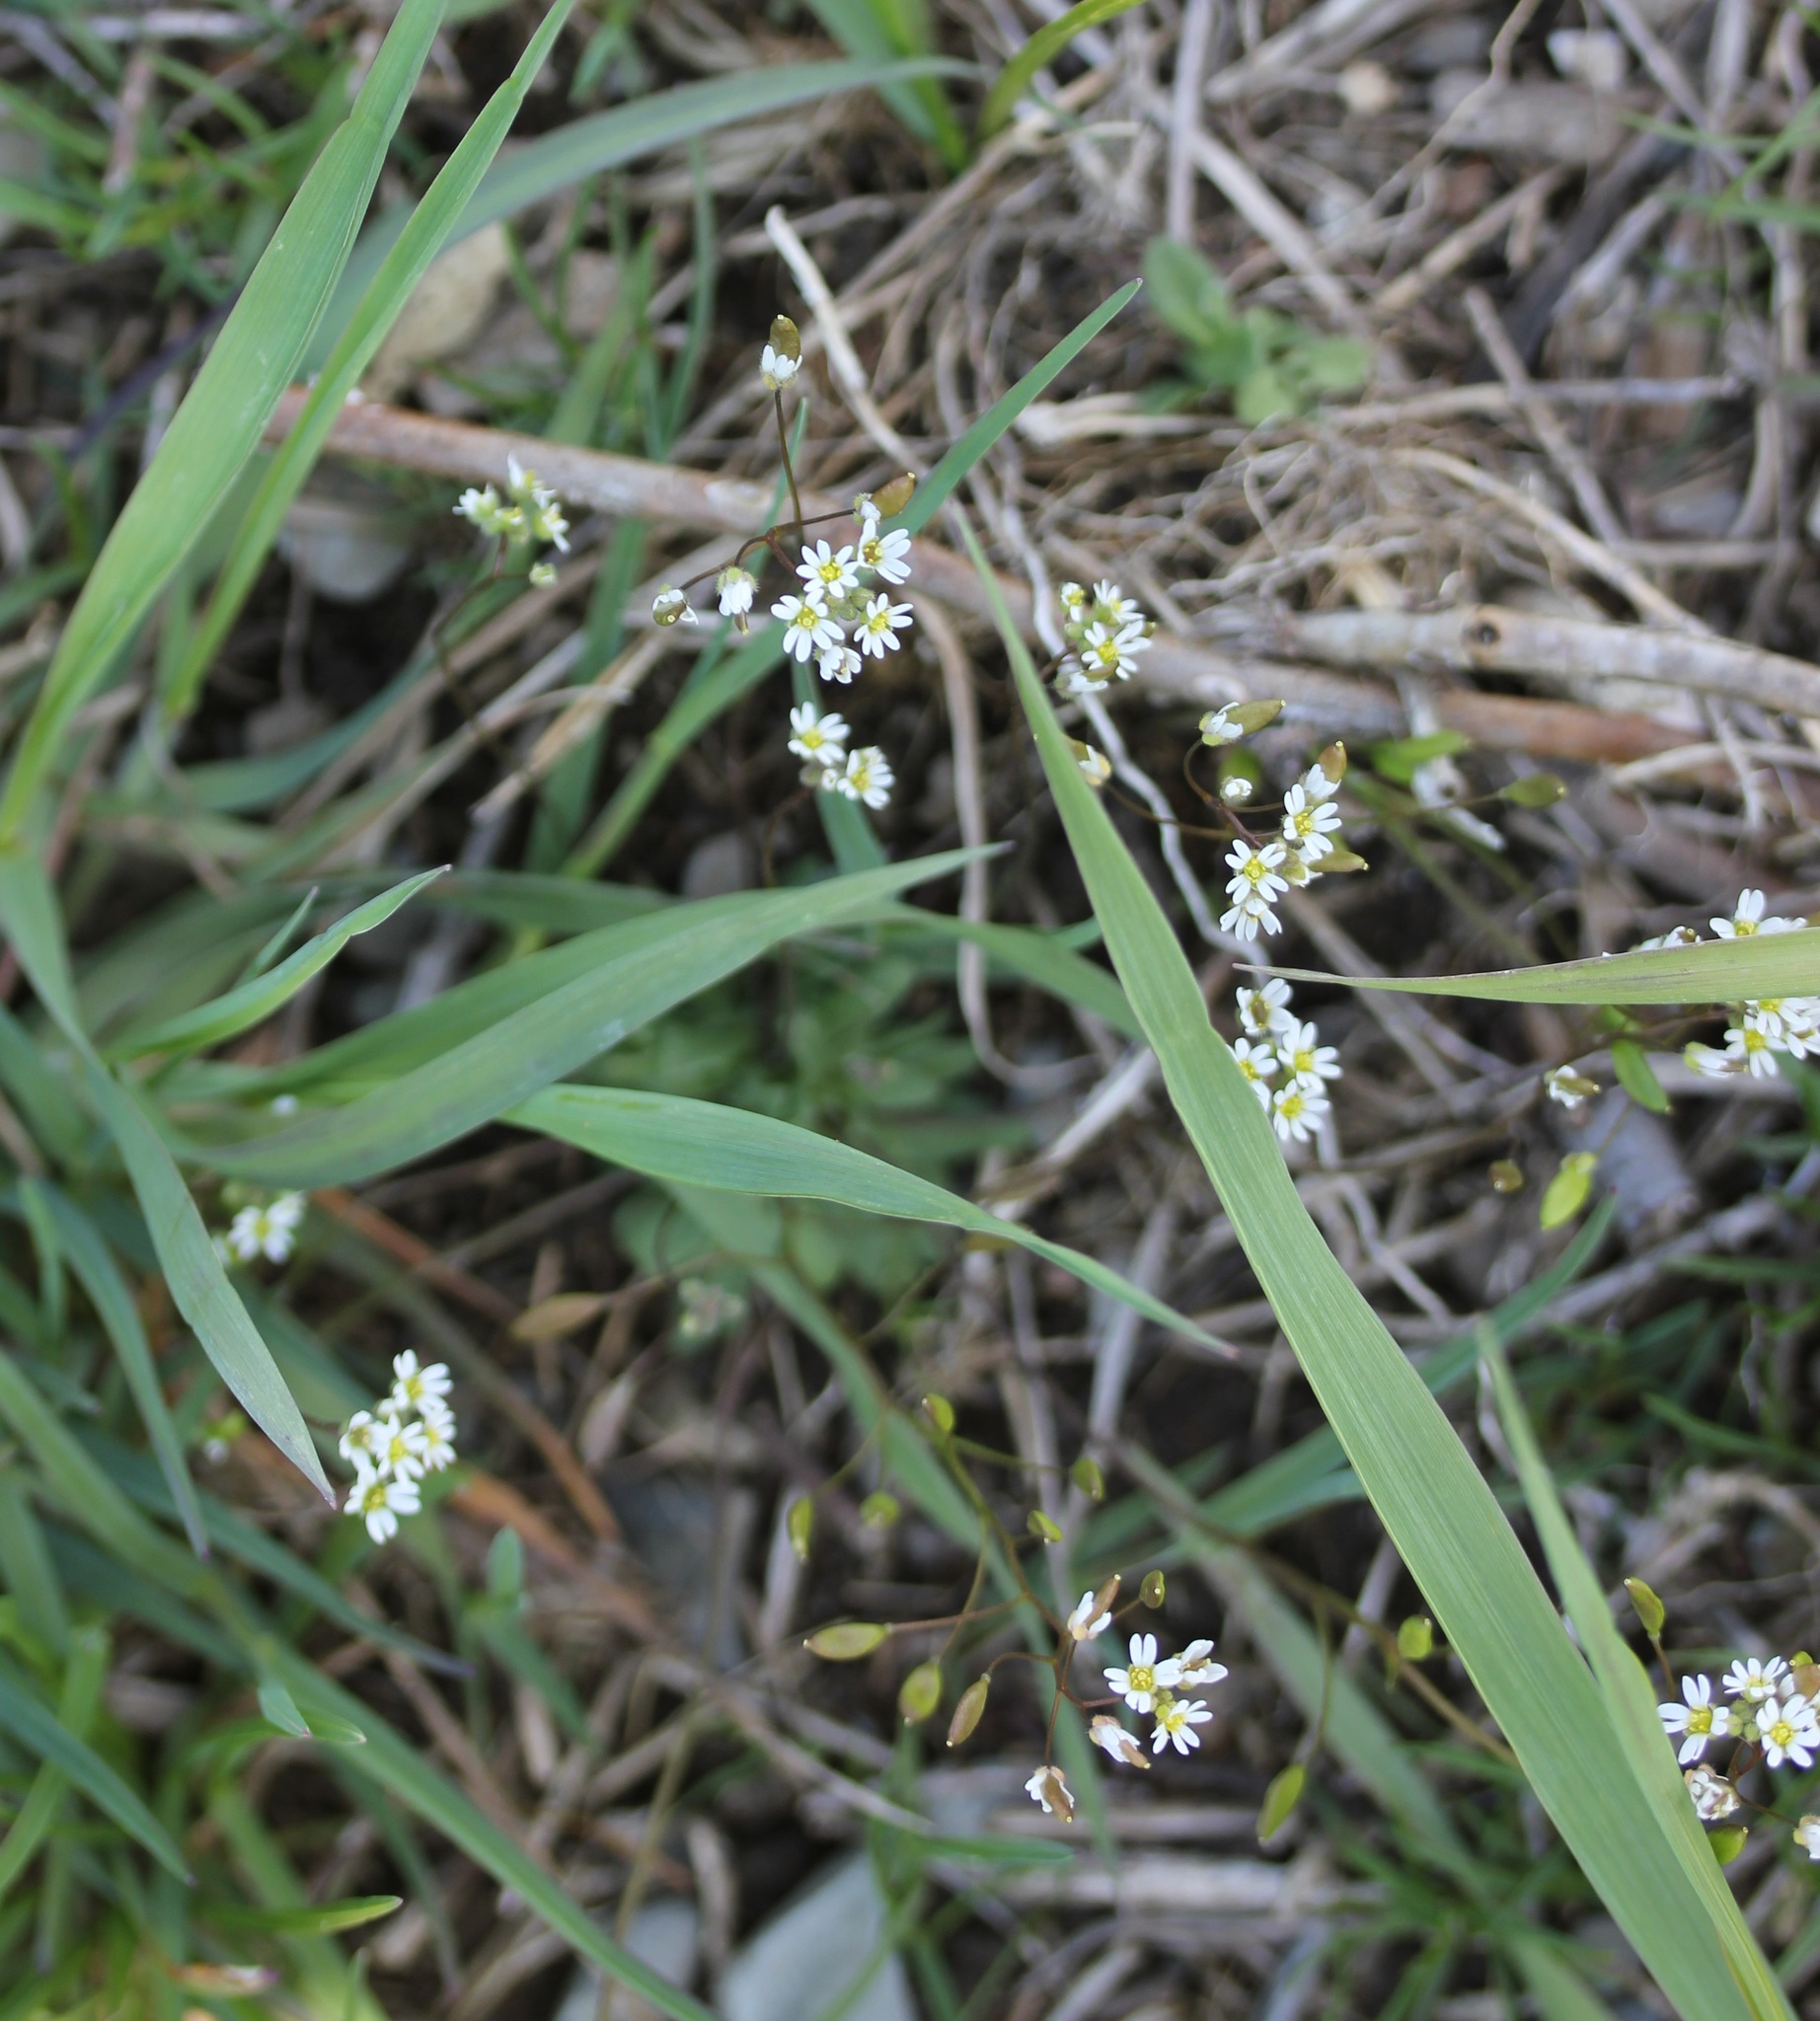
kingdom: Plantae
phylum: Tracheophyta
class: Magnoliopsida
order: Brassicales
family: Brassicaceae
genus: Draba
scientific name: Draba verna
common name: Spring draba
